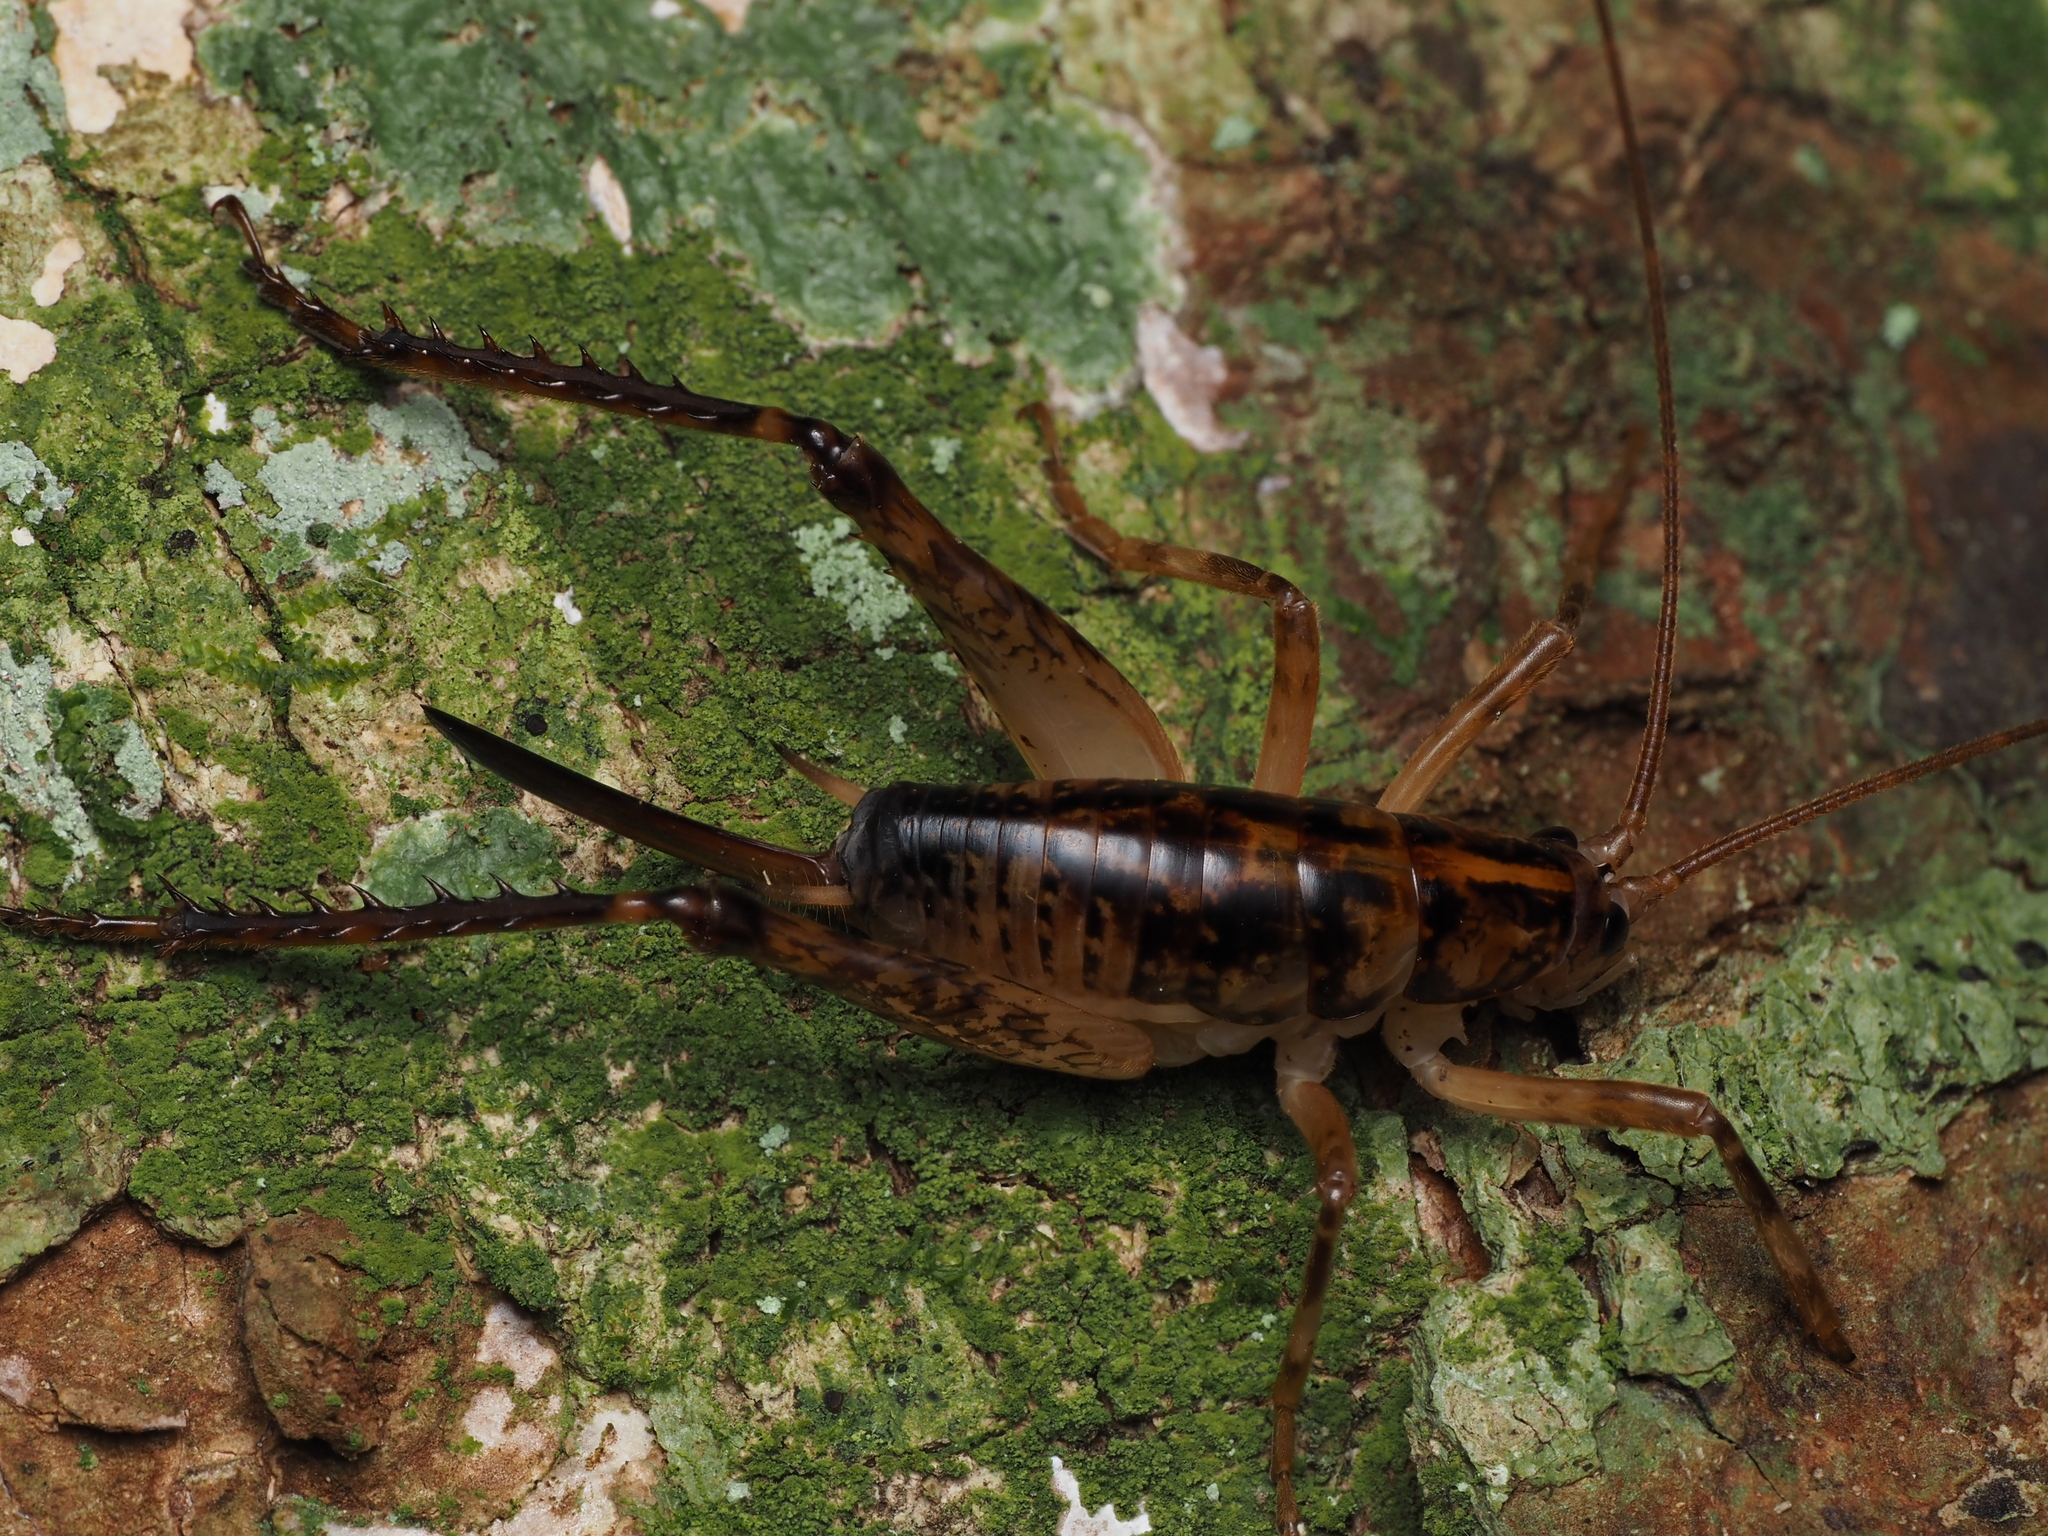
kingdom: Animalia
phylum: Arthropoda
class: Insecta
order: Orthoptera
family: Rhaphidophoridae
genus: Talitropsis
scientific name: Talitropsis sedilloti
